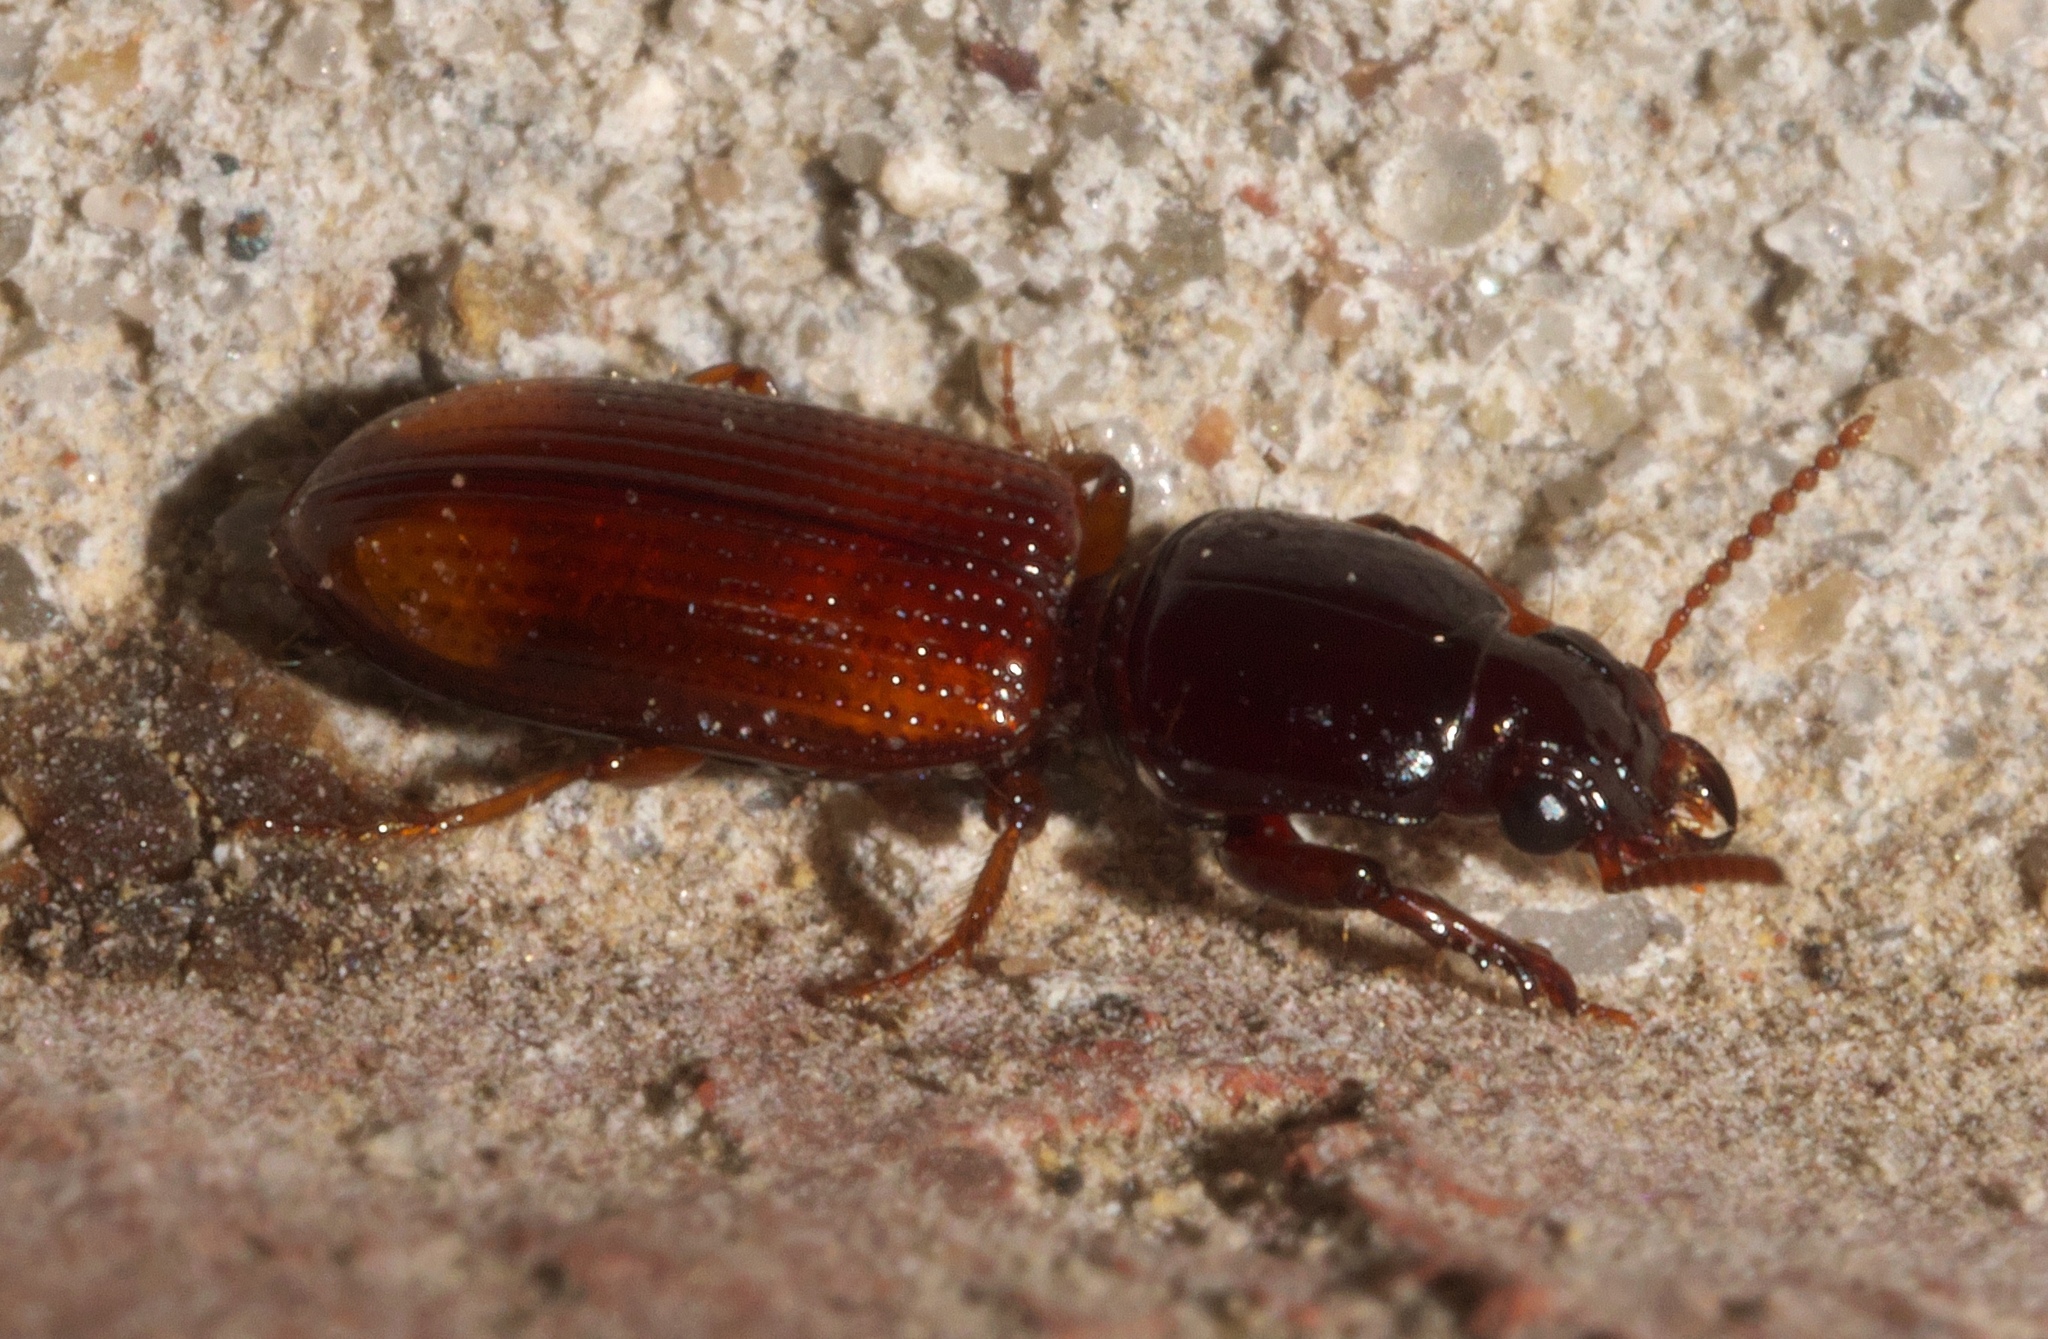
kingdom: Animalia
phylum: Arthropoda
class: Insecta
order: Coleoptera
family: Carabidae
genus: Clivina
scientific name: Clivina bipustulata
